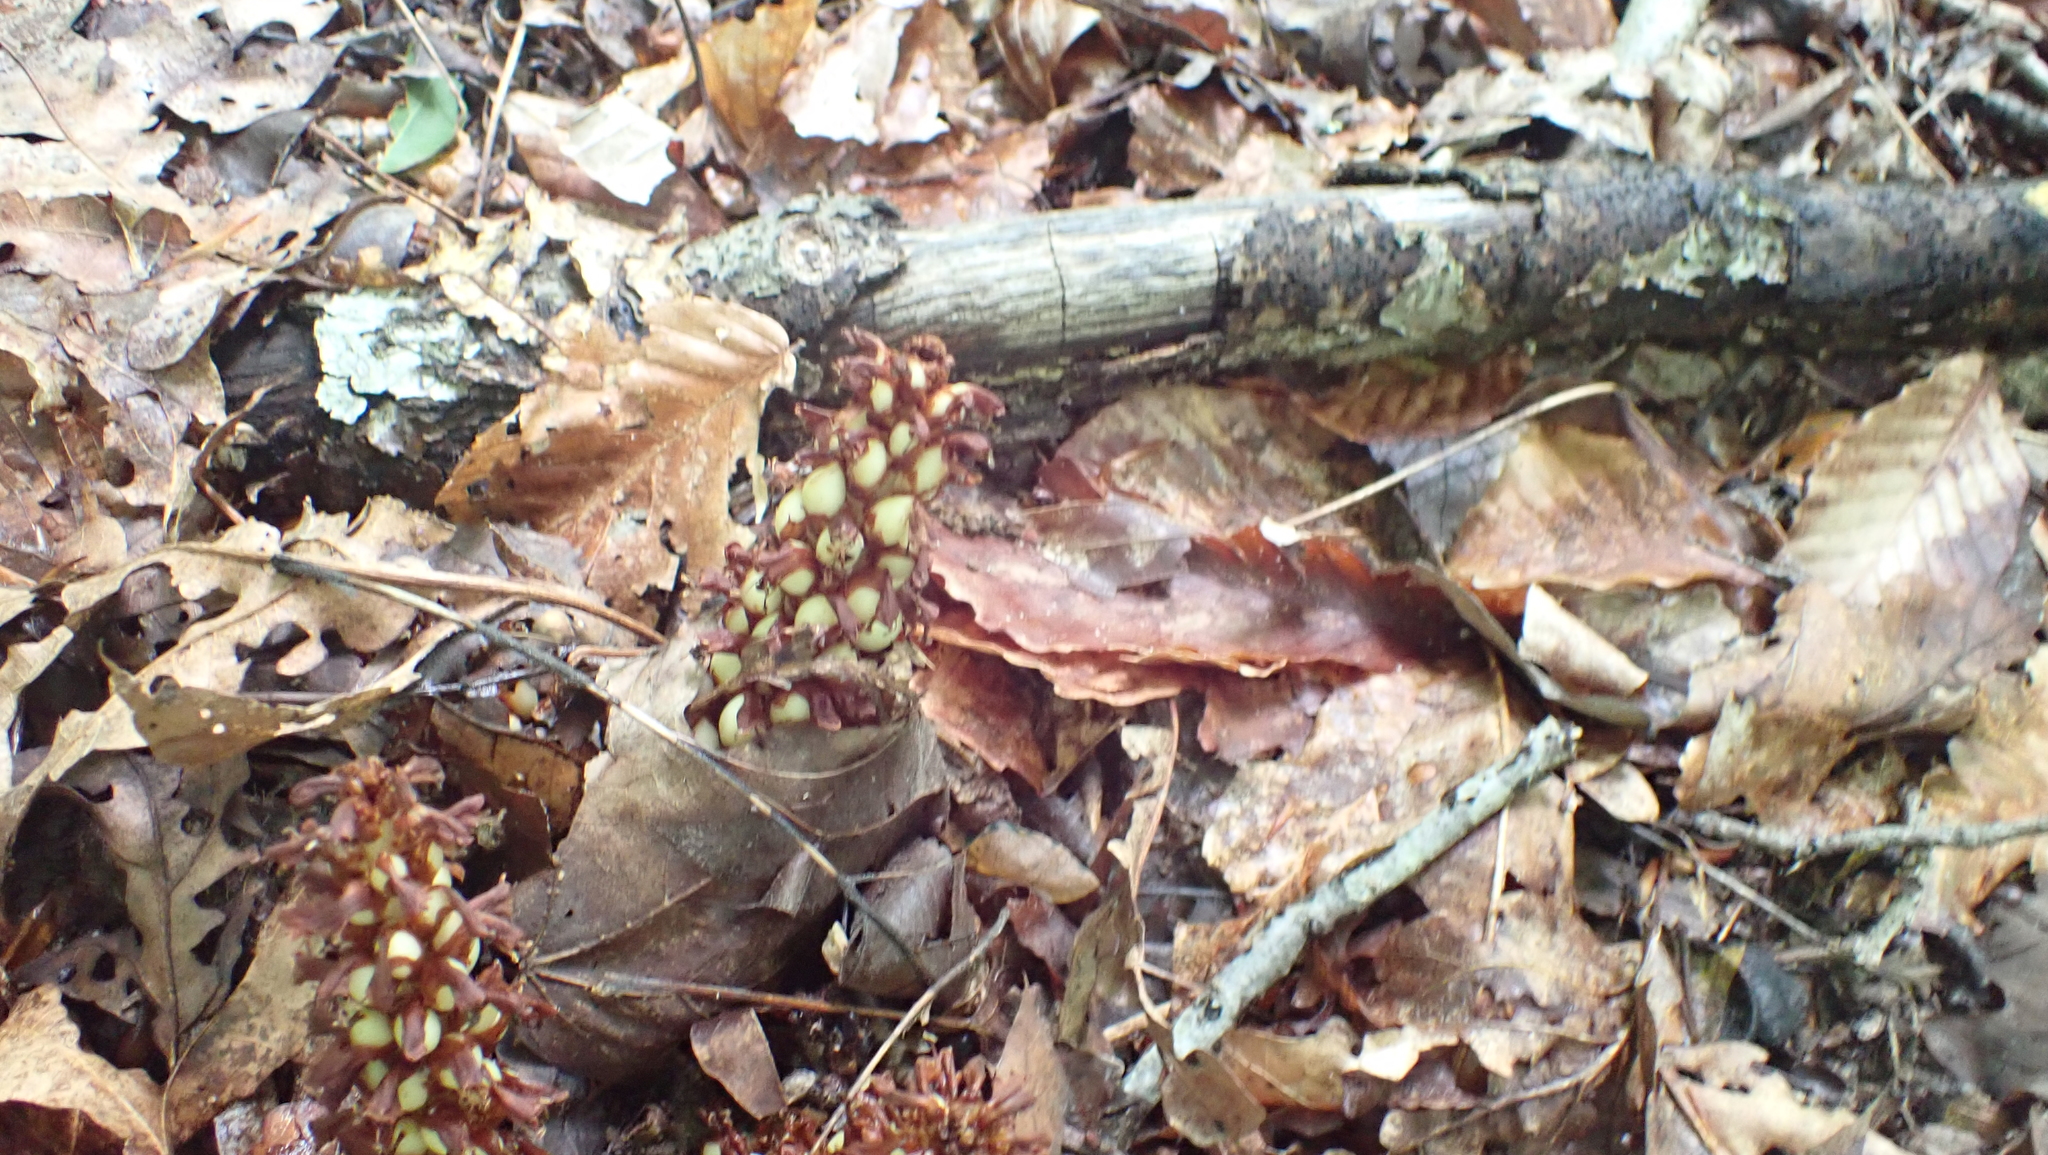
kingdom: Plantae
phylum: Tracheophyta
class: Magnoliopsida
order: Lamiales
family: Orobanchaceae
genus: Conopholis
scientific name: Conopholis americana
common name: American cancer-root
